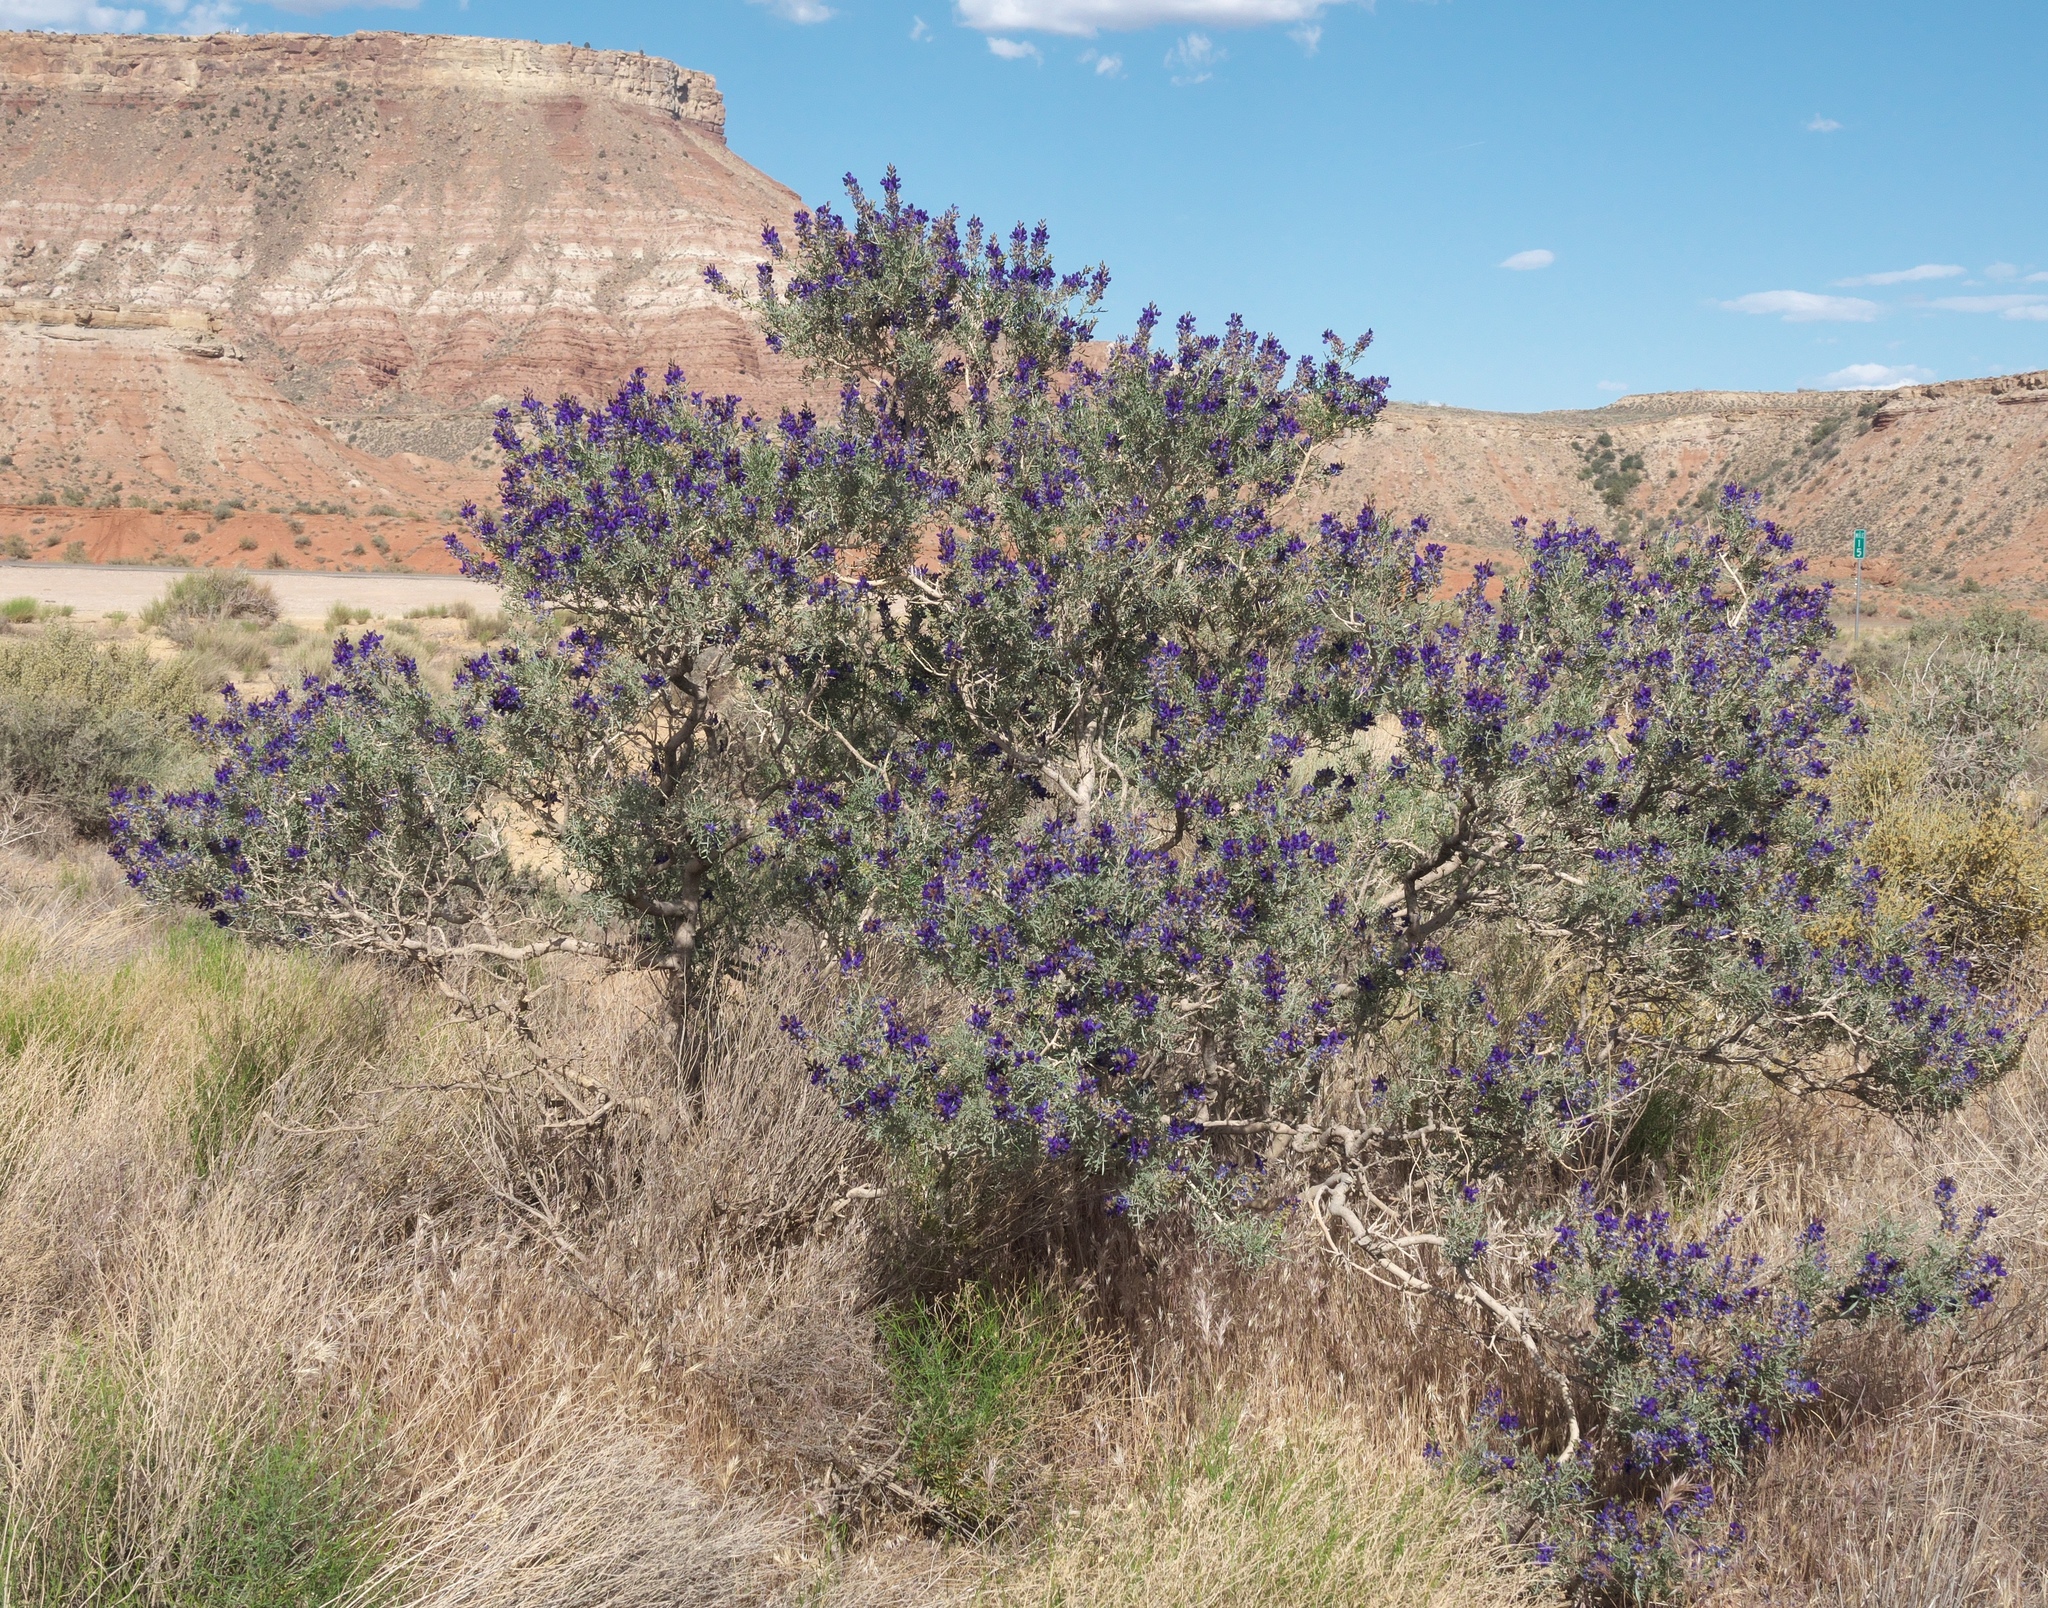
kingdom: Plantae
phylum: Tracheophyta
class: Magnoliopsida
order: Fabales
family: Fabaceae
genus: Psorothamnus
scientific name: Psorothamnus arborescens
